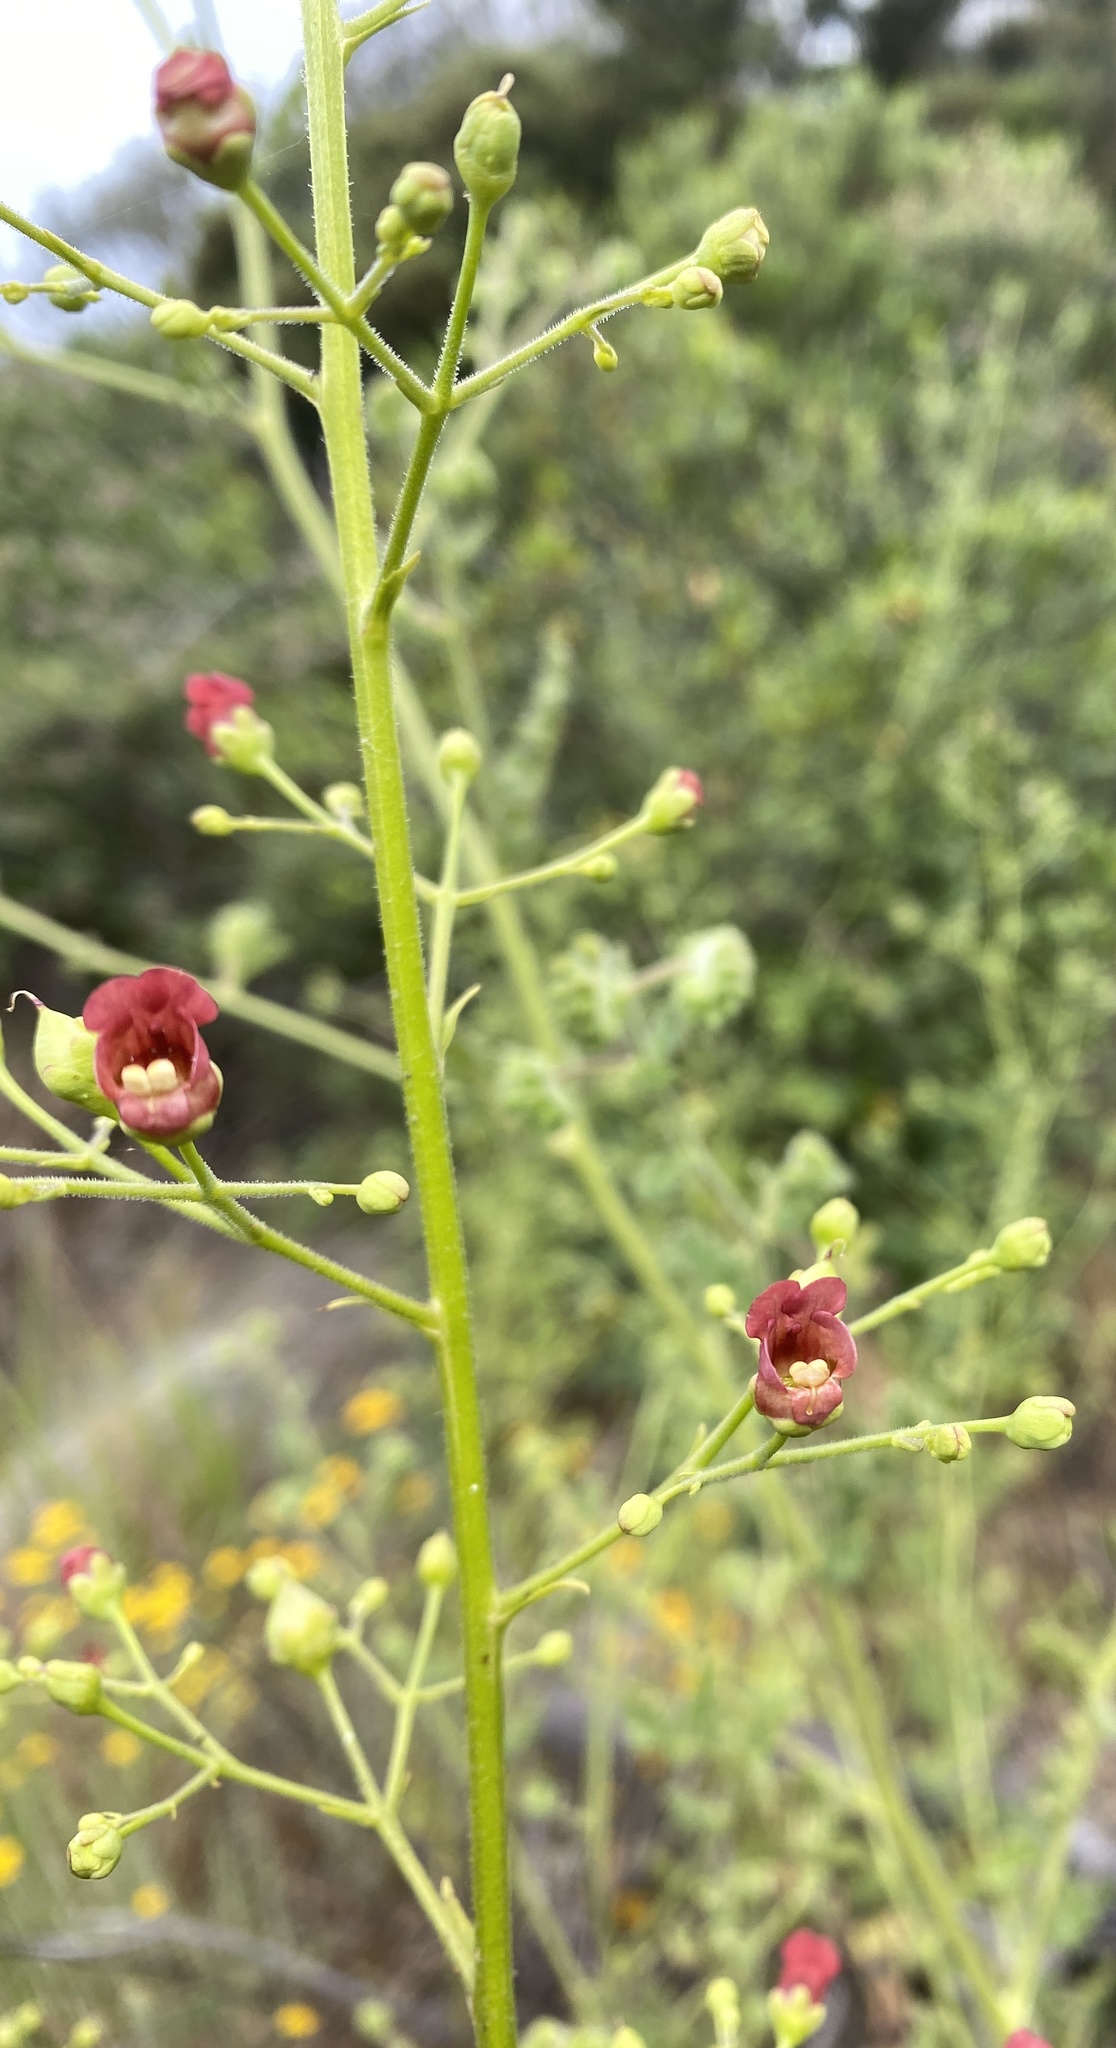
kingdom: Plantae
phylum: Tracheophyta
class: Magnoliopsida
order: Lamiales
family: Scrophulariaceae
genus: Scrophularia
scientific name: Scrophularia californica
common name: California figwort
